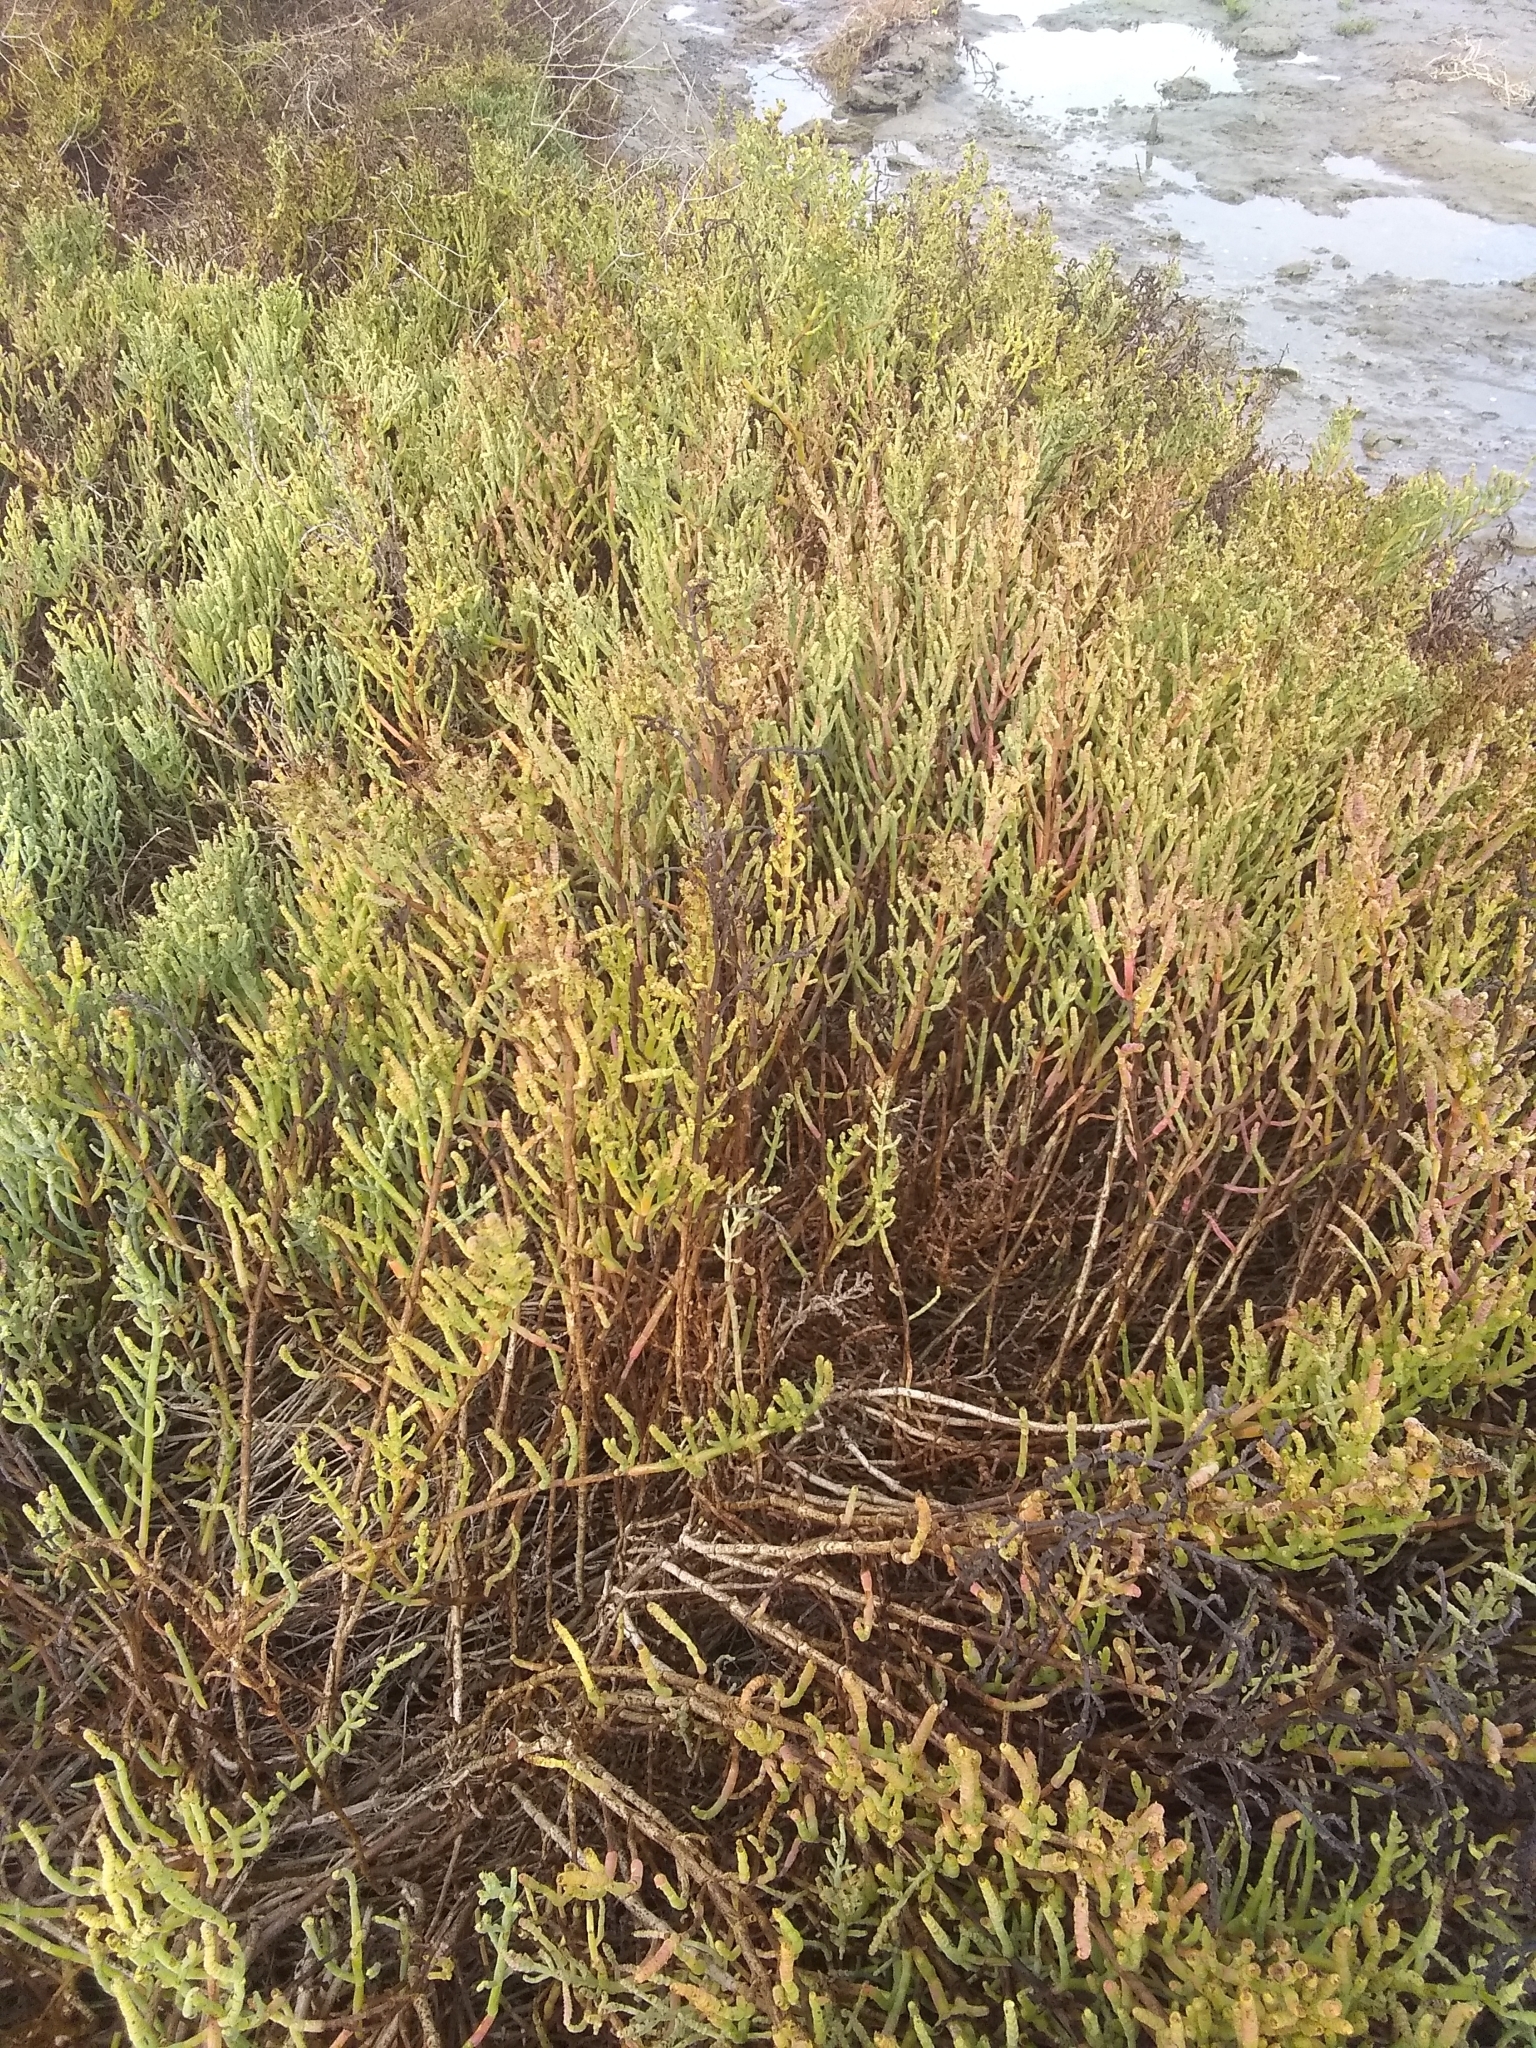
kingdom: Plantae
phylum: Tracheophyta
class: Magnoliopsida
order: Caryophyllales
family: Amaranthaceae
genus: Salicornia
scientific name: Salicornia pacifica
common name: Pacific glasswort
